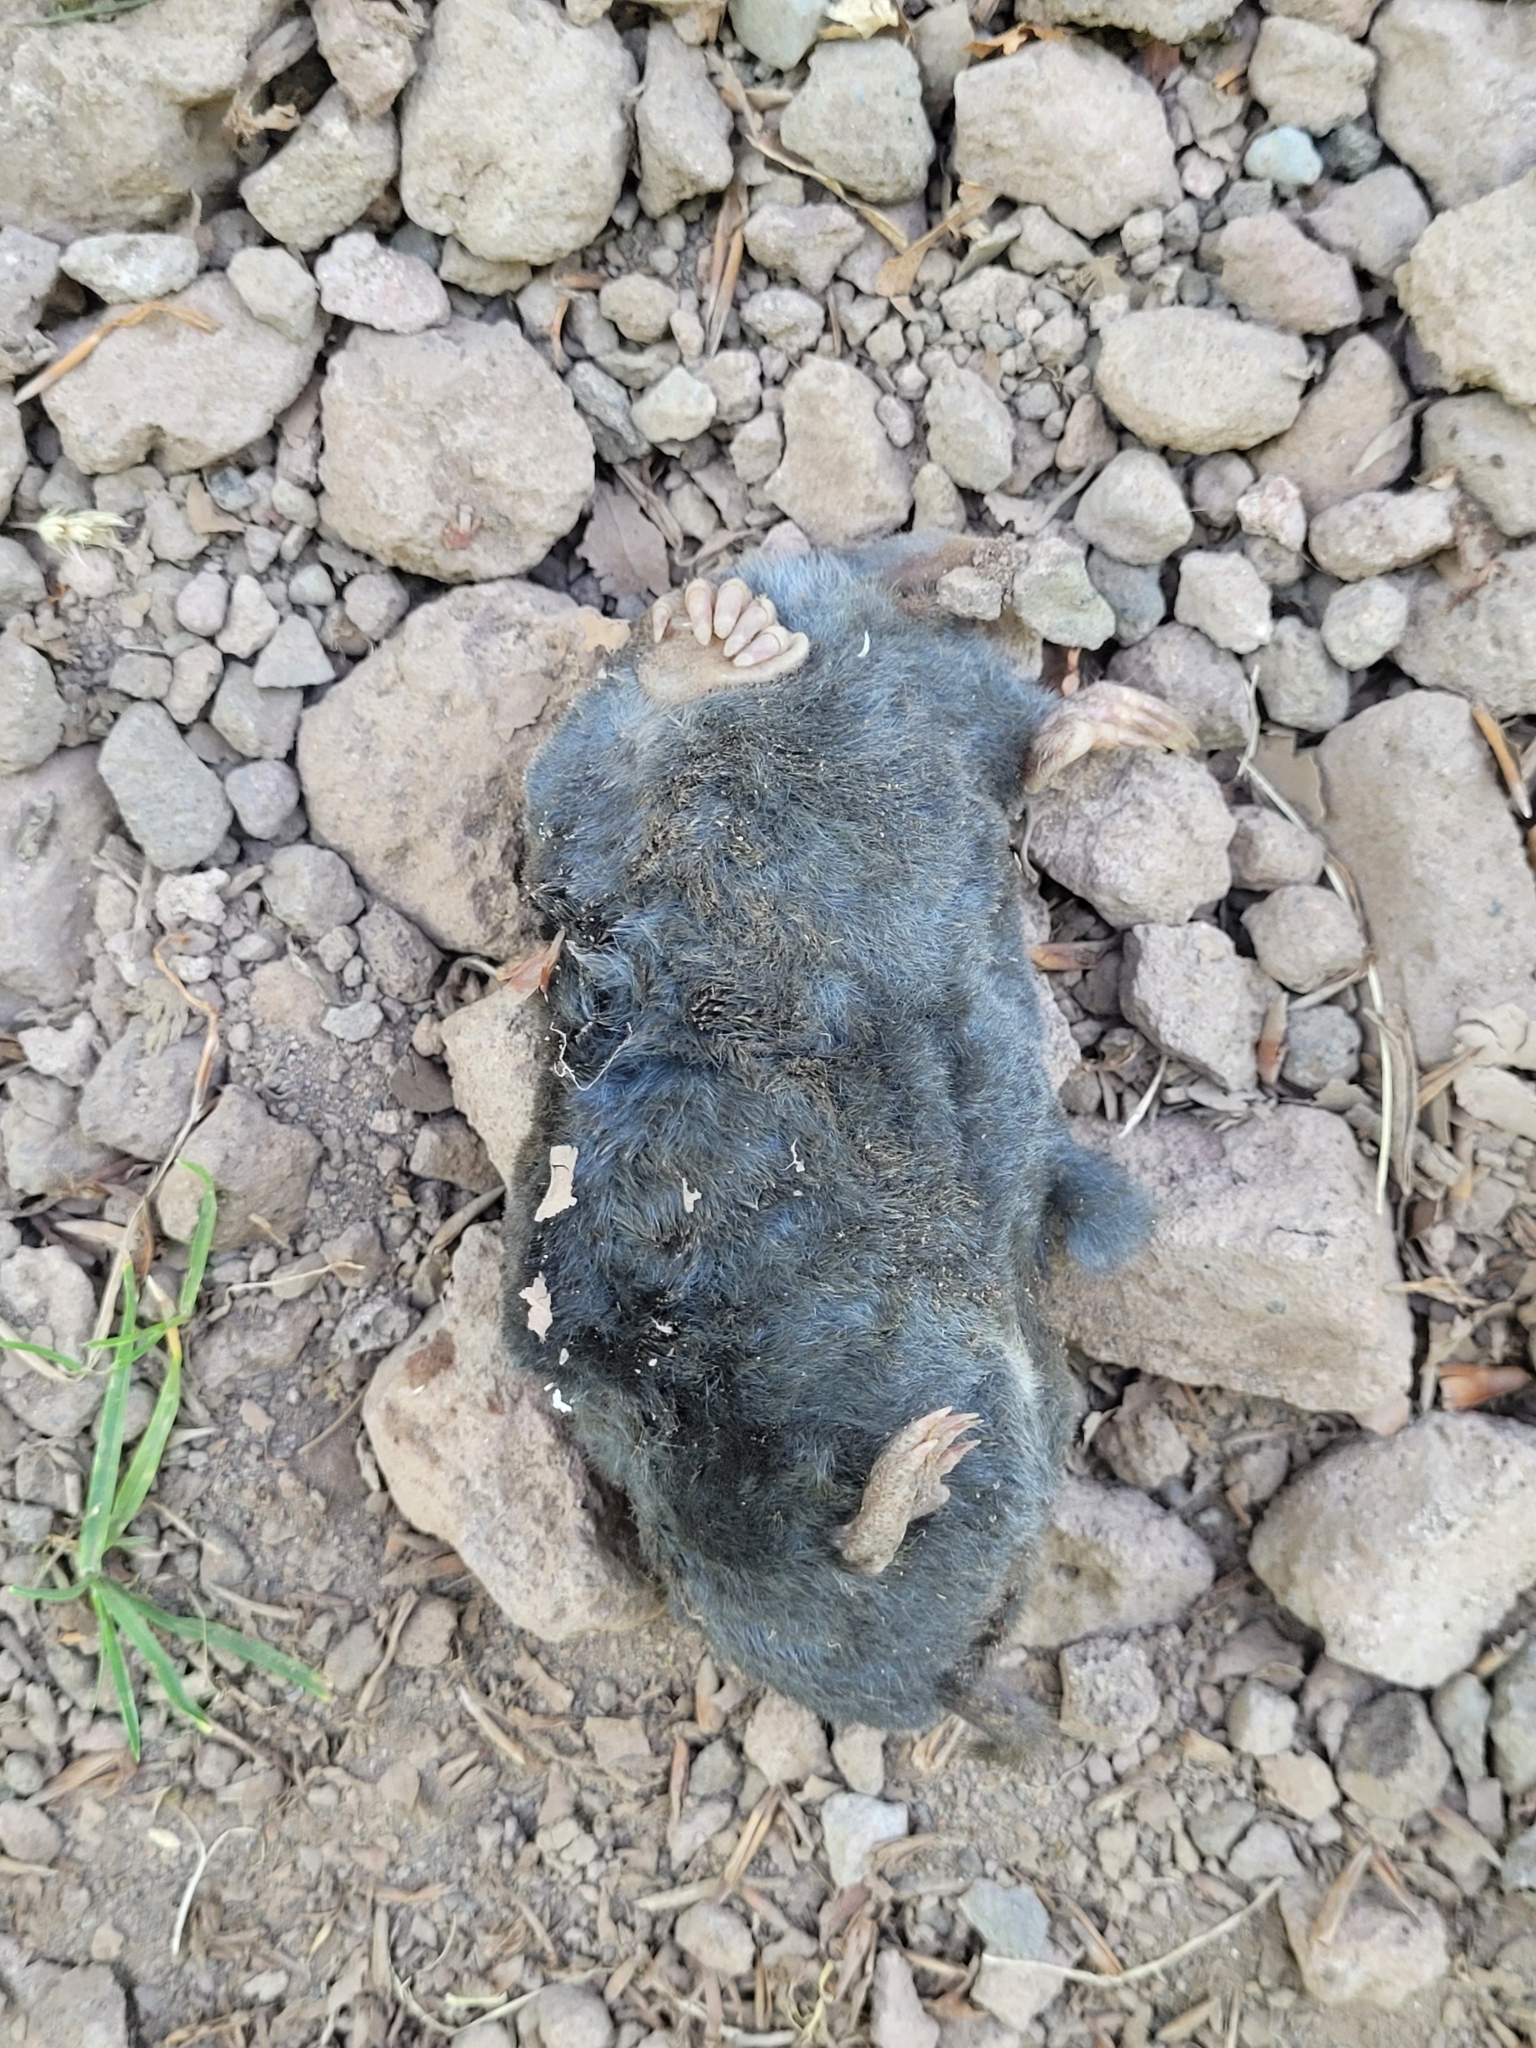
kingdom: Animalia
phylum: Chordata
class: Mammalia
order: Soricomorpha
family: Talpidae
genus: Talpa
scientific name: Talpa europaea
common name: European mole
